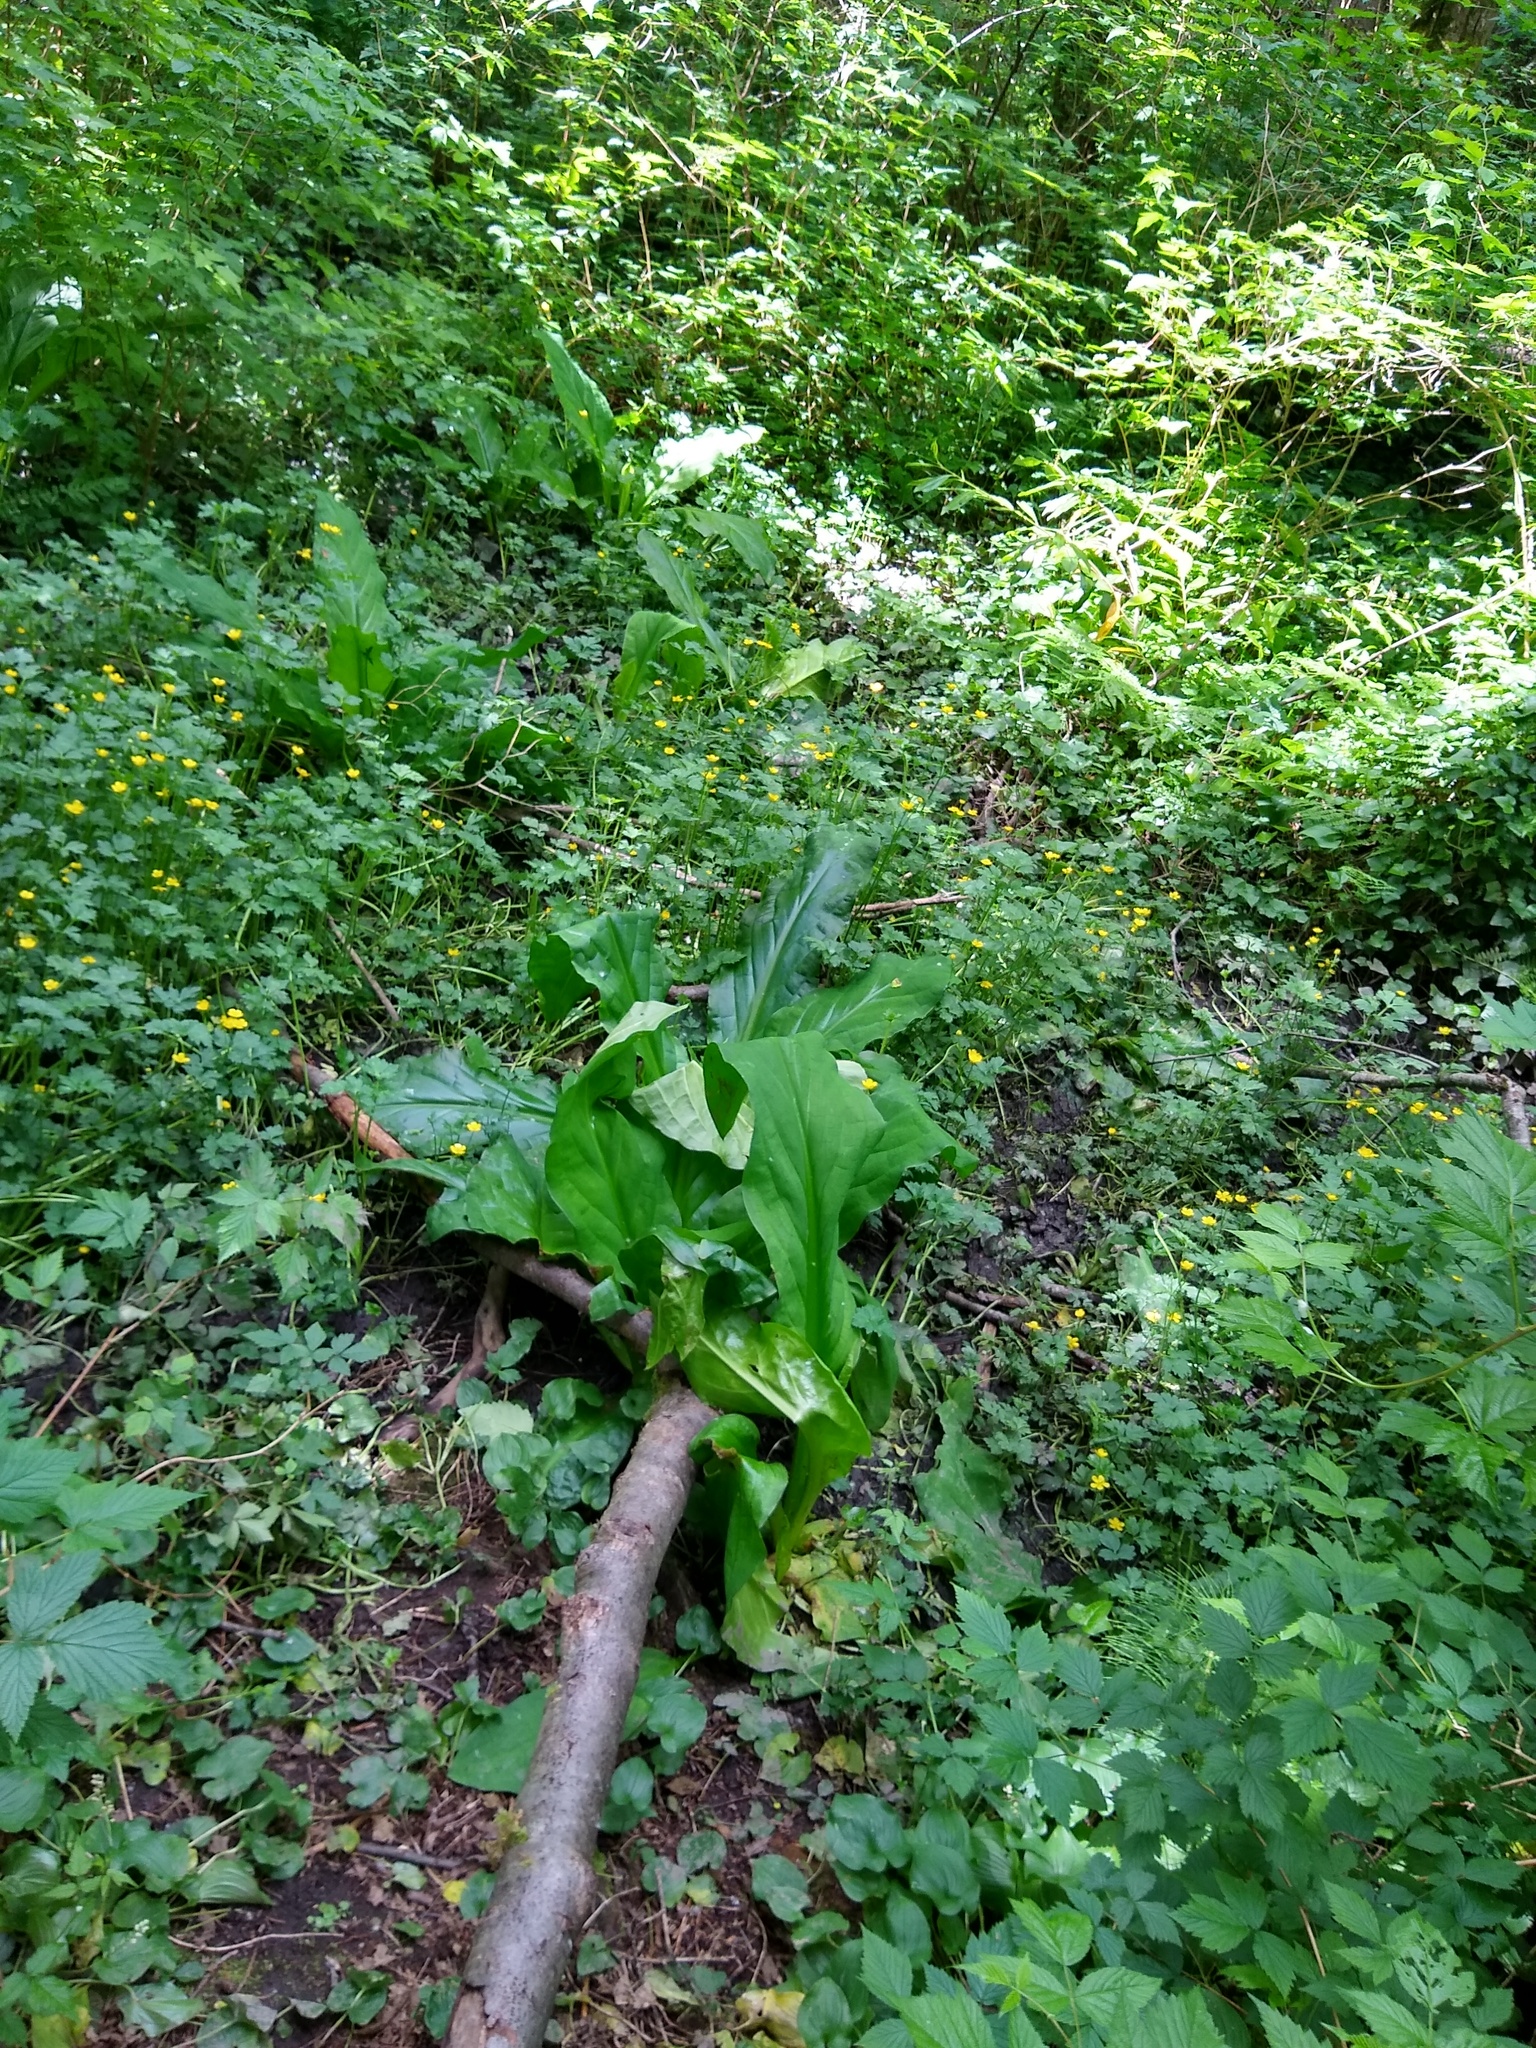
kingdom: Plantae
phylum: Tracheophyta
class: Liliopsida
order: Alismatales
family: Araceae
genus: Lysichiton
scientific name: Lysichiton americanus
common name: American skunk cabbage
